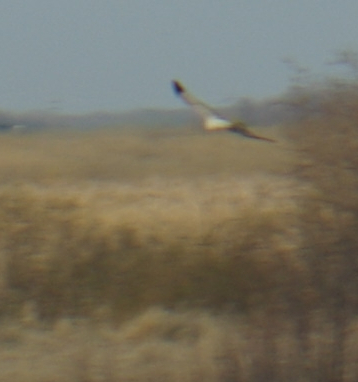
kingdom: Animalia
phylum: Chordata
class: Aves
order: Accipitriformes
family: Accipitridae
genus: Circus
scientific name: Circus cyaneus
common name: Hen harrier
